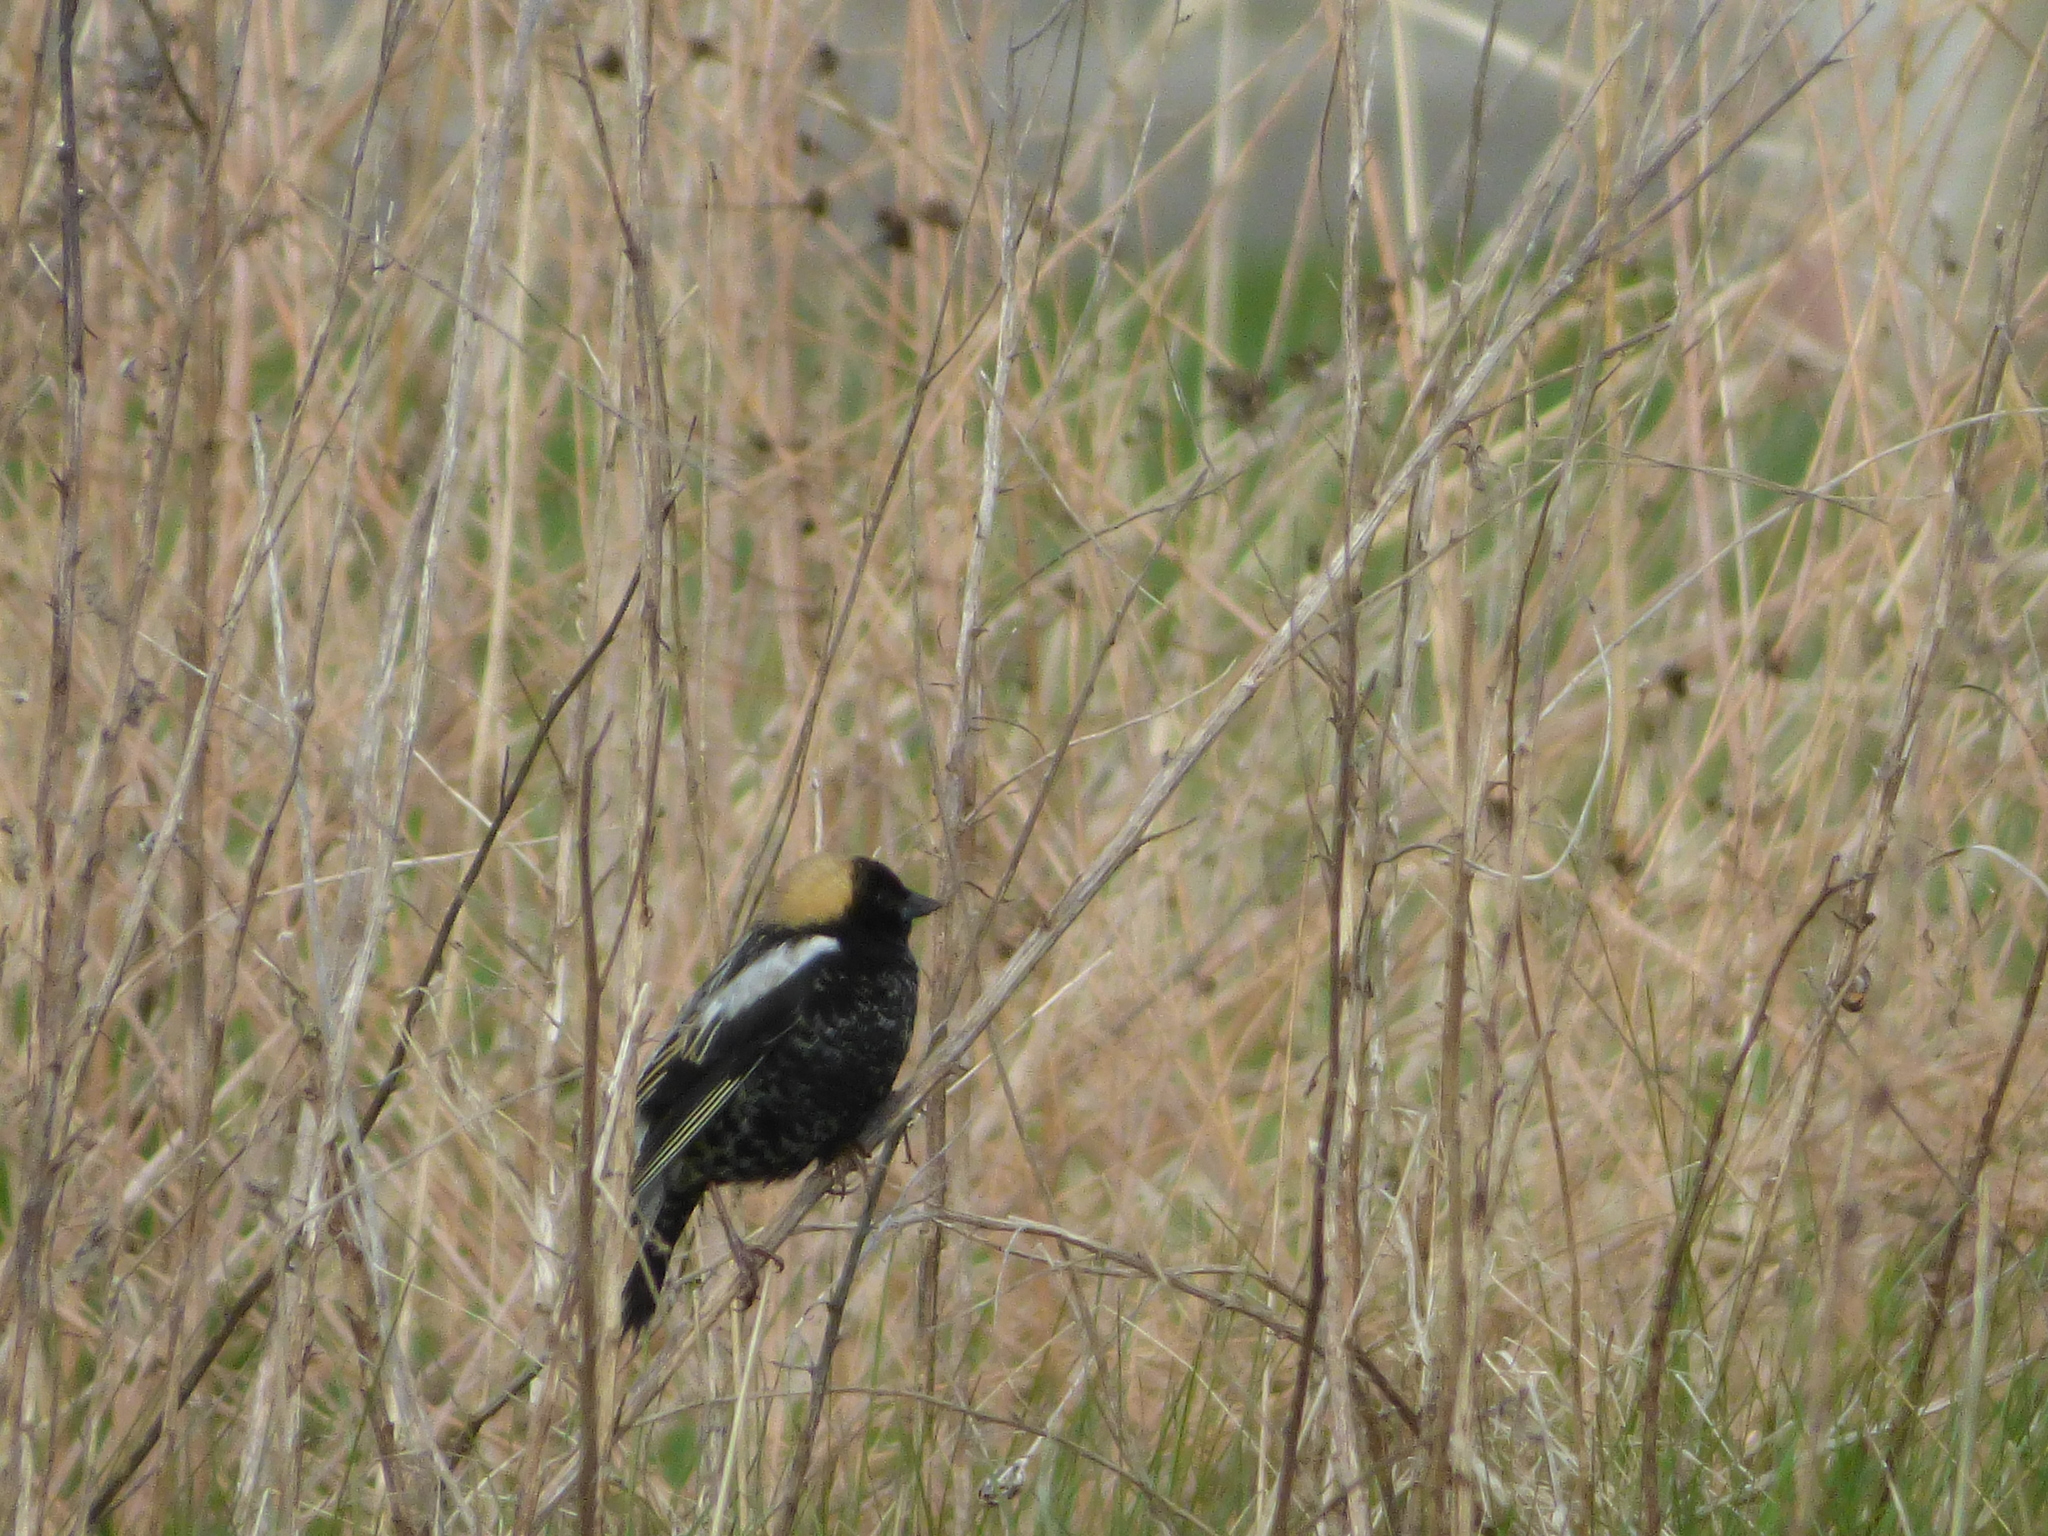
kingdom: Animalia
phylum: Chordata
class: Aves
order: Passeriformes
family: Icteridae
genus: Dolichonyx
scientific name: Dolichonyx oryzivorus
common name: Bobolink
